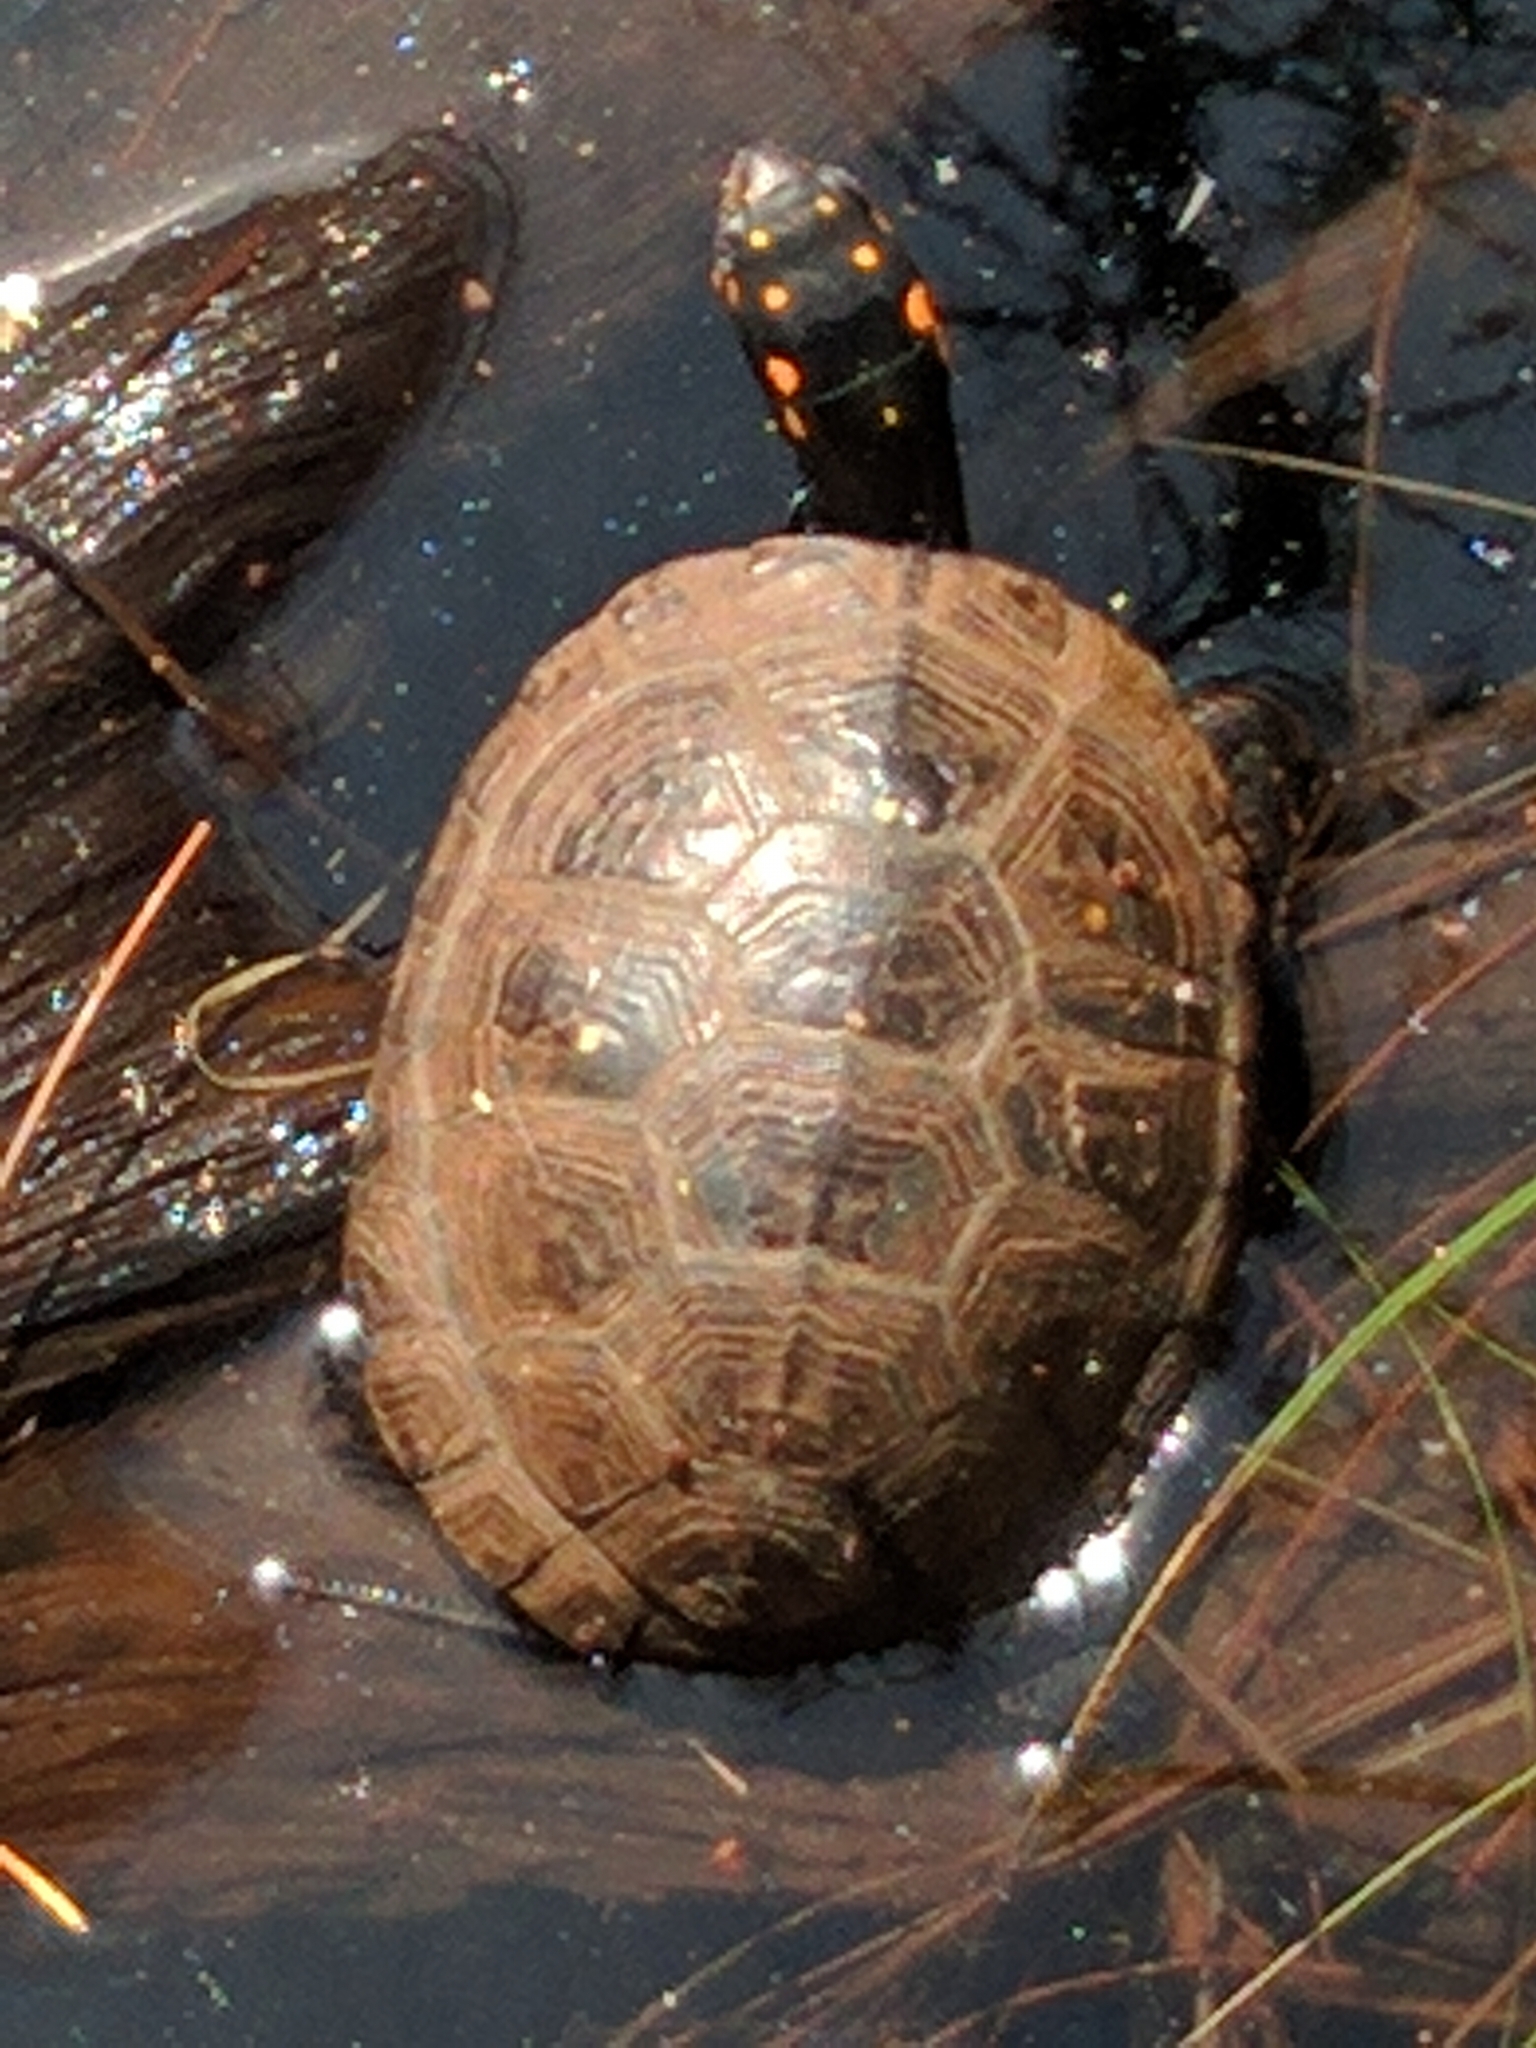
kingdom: Animalia
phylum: Chordata
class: Testudines
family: Emydidae
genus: Clemmys
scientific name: Clemmys guttata
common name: Spotted turtle
